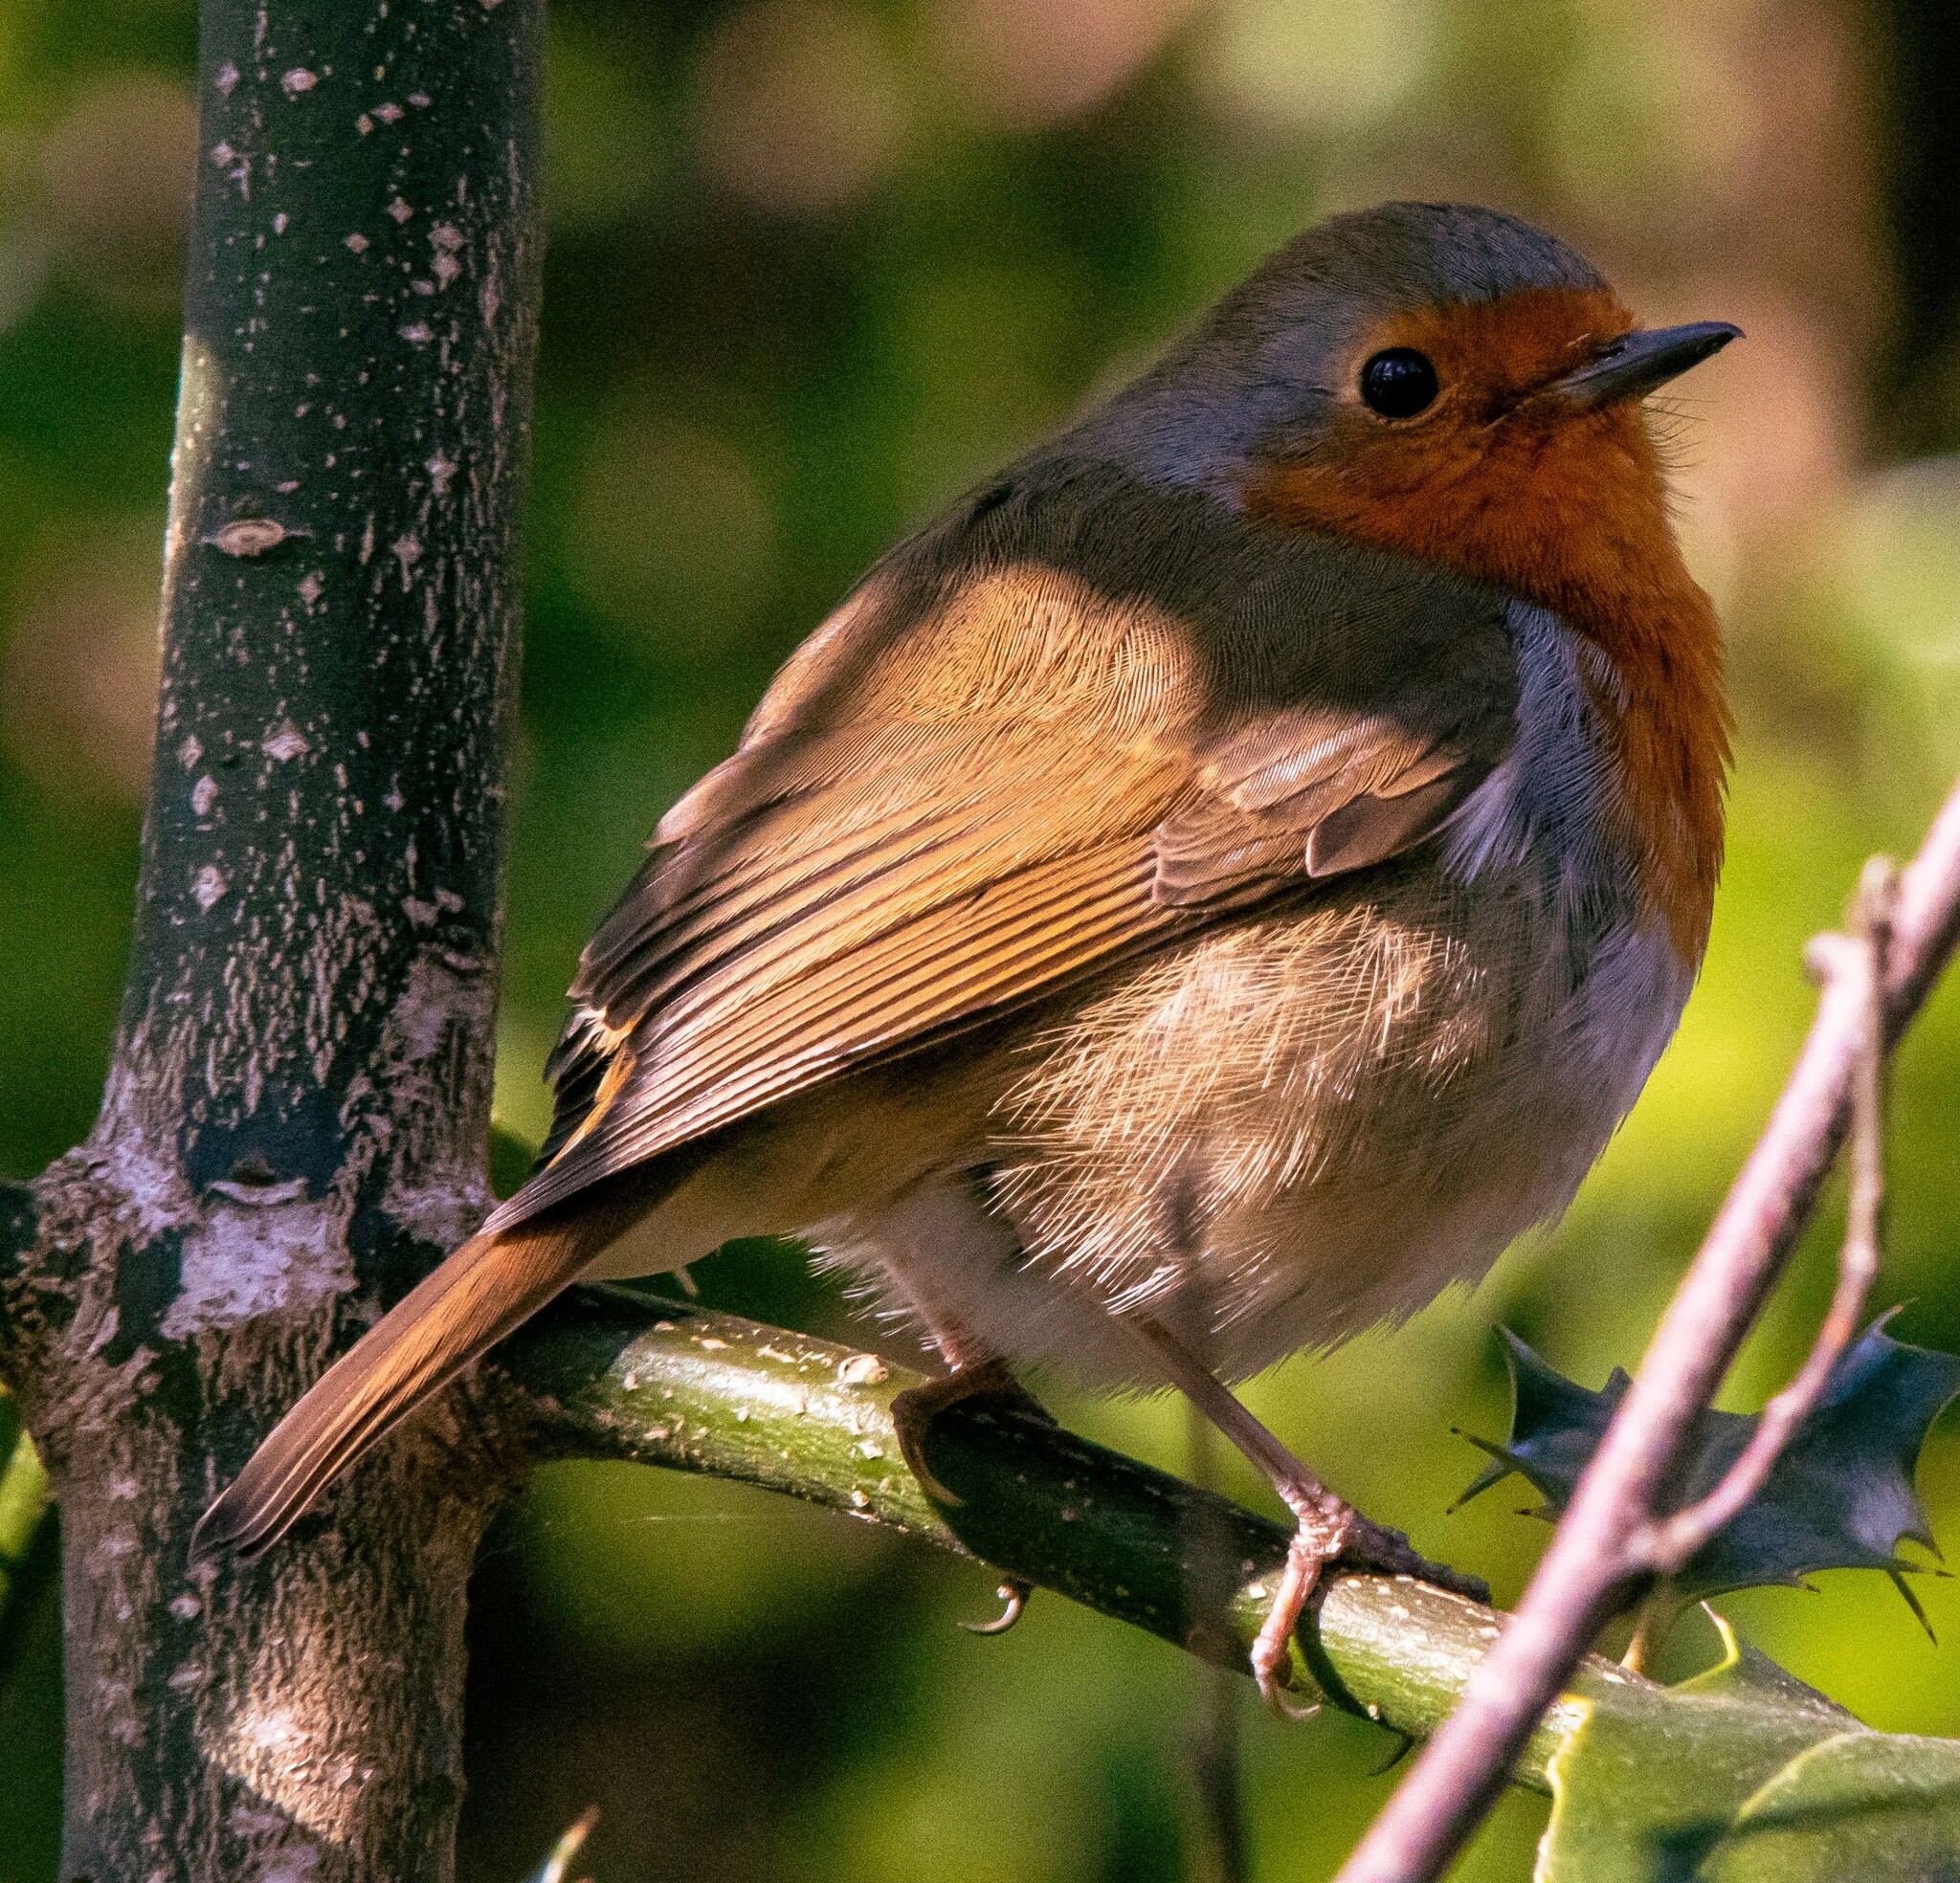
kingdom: Animalia
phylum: Chordata
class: Aves
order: Passeriformes
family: Muscicapidae
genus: Erithacus
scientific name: Erithacus rubecula
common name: European robin
